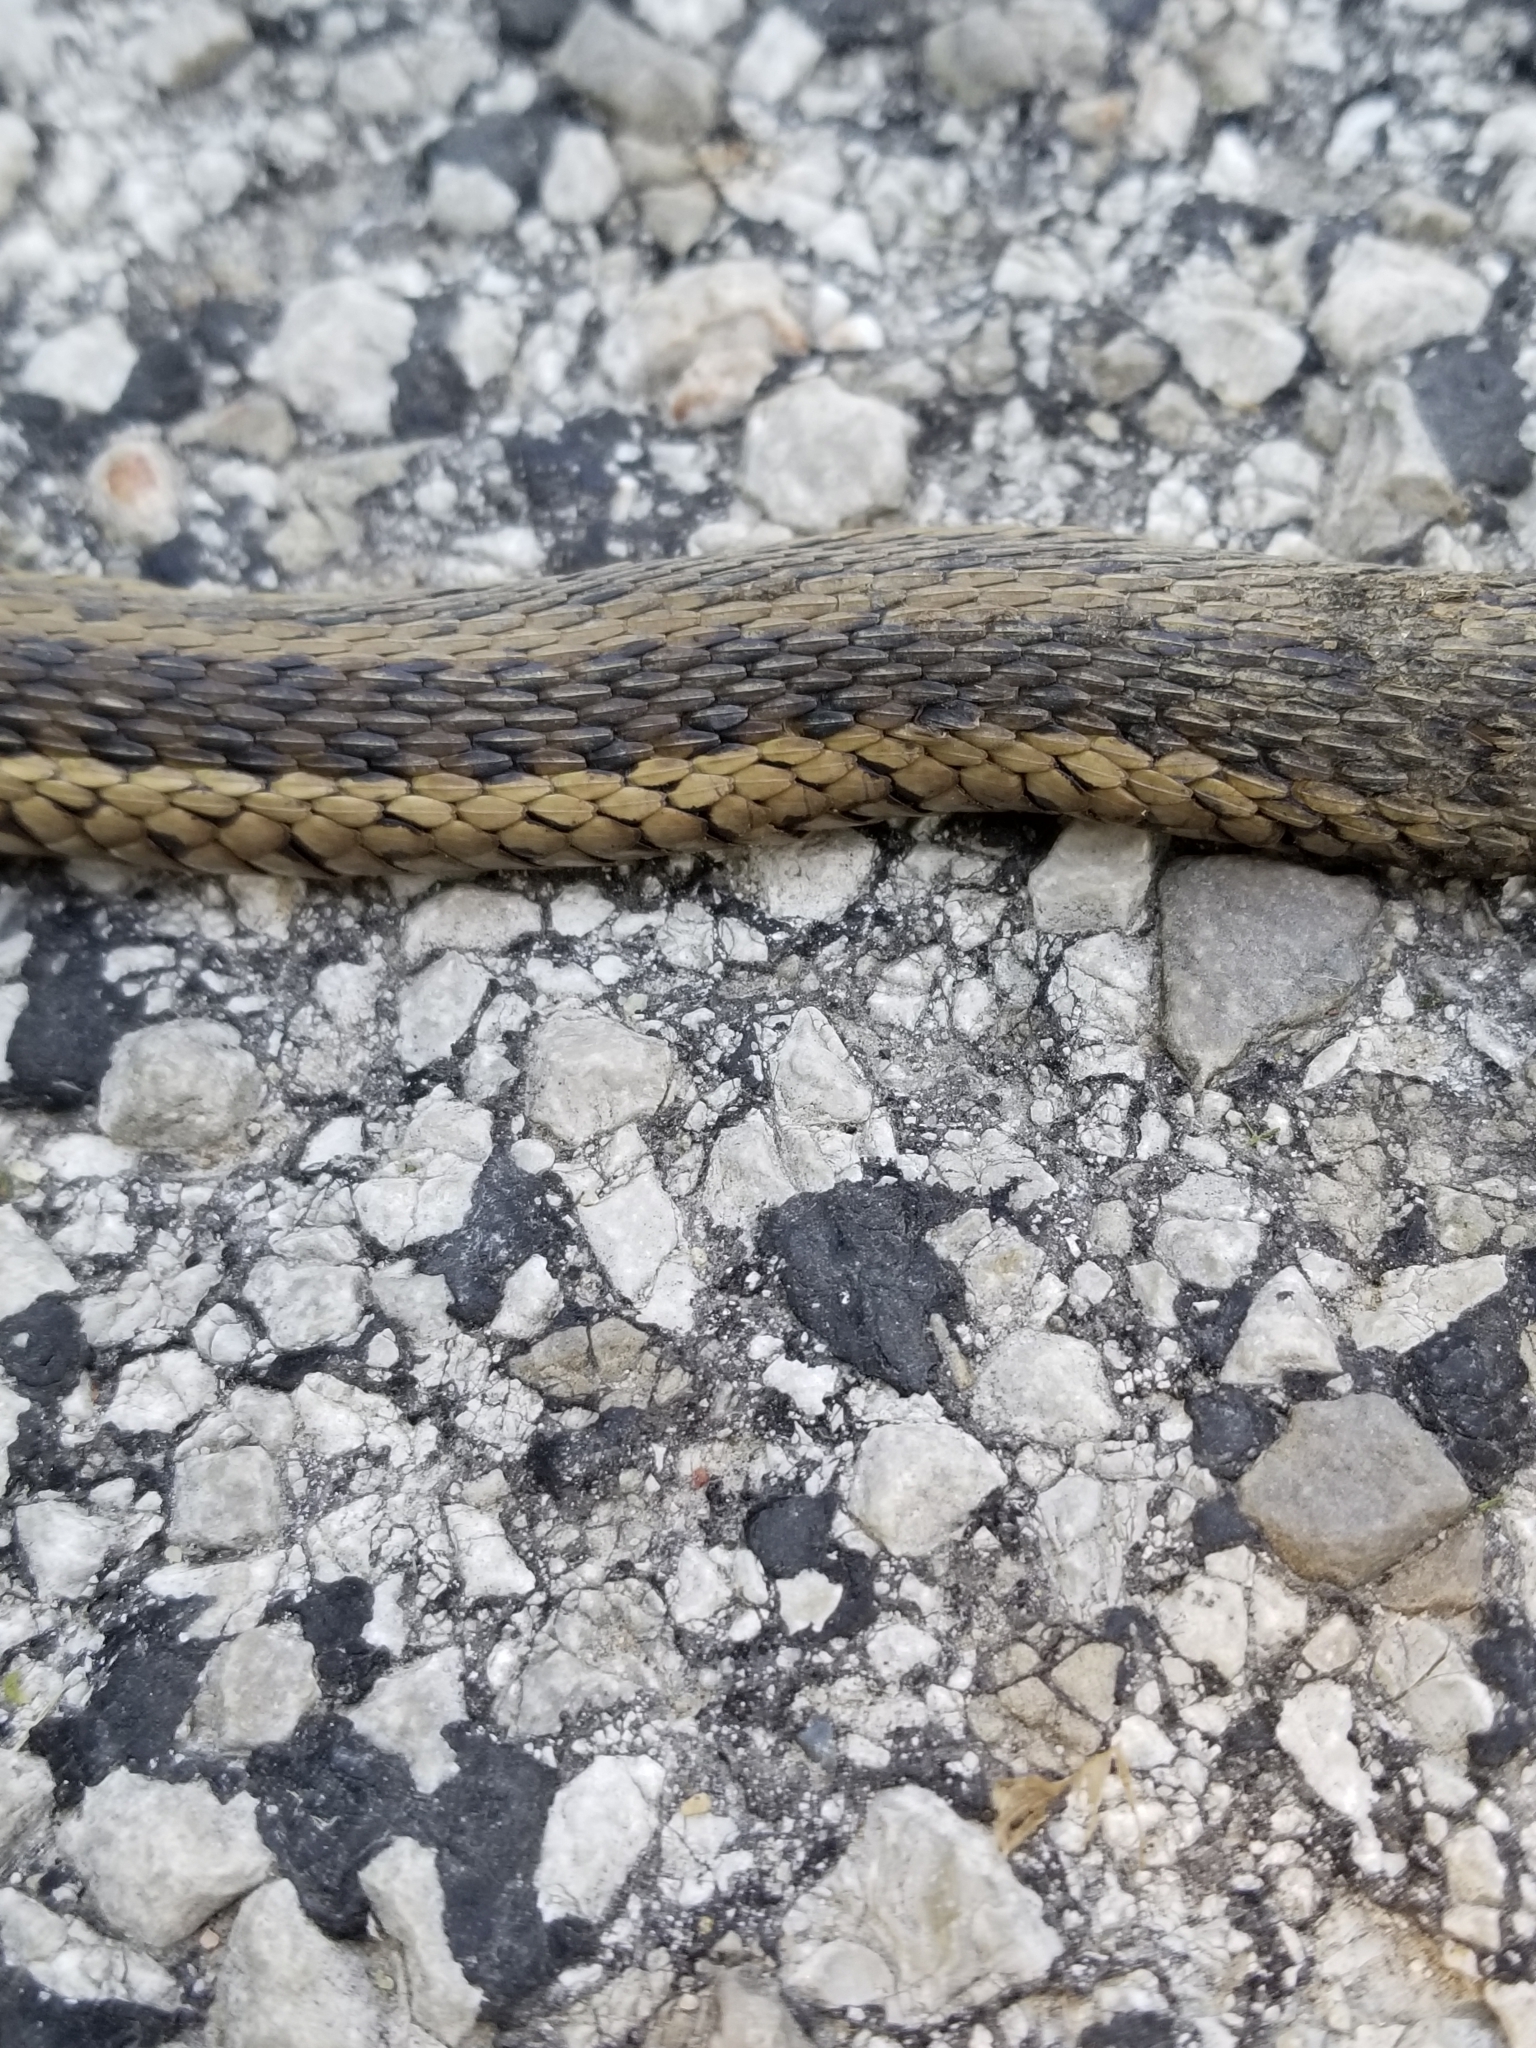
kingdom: Animalia
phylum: Chordata
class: Squamata
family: Colubridae
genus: Thamnophis
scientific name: Thamnophis sirtalis
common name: Common garter snake
